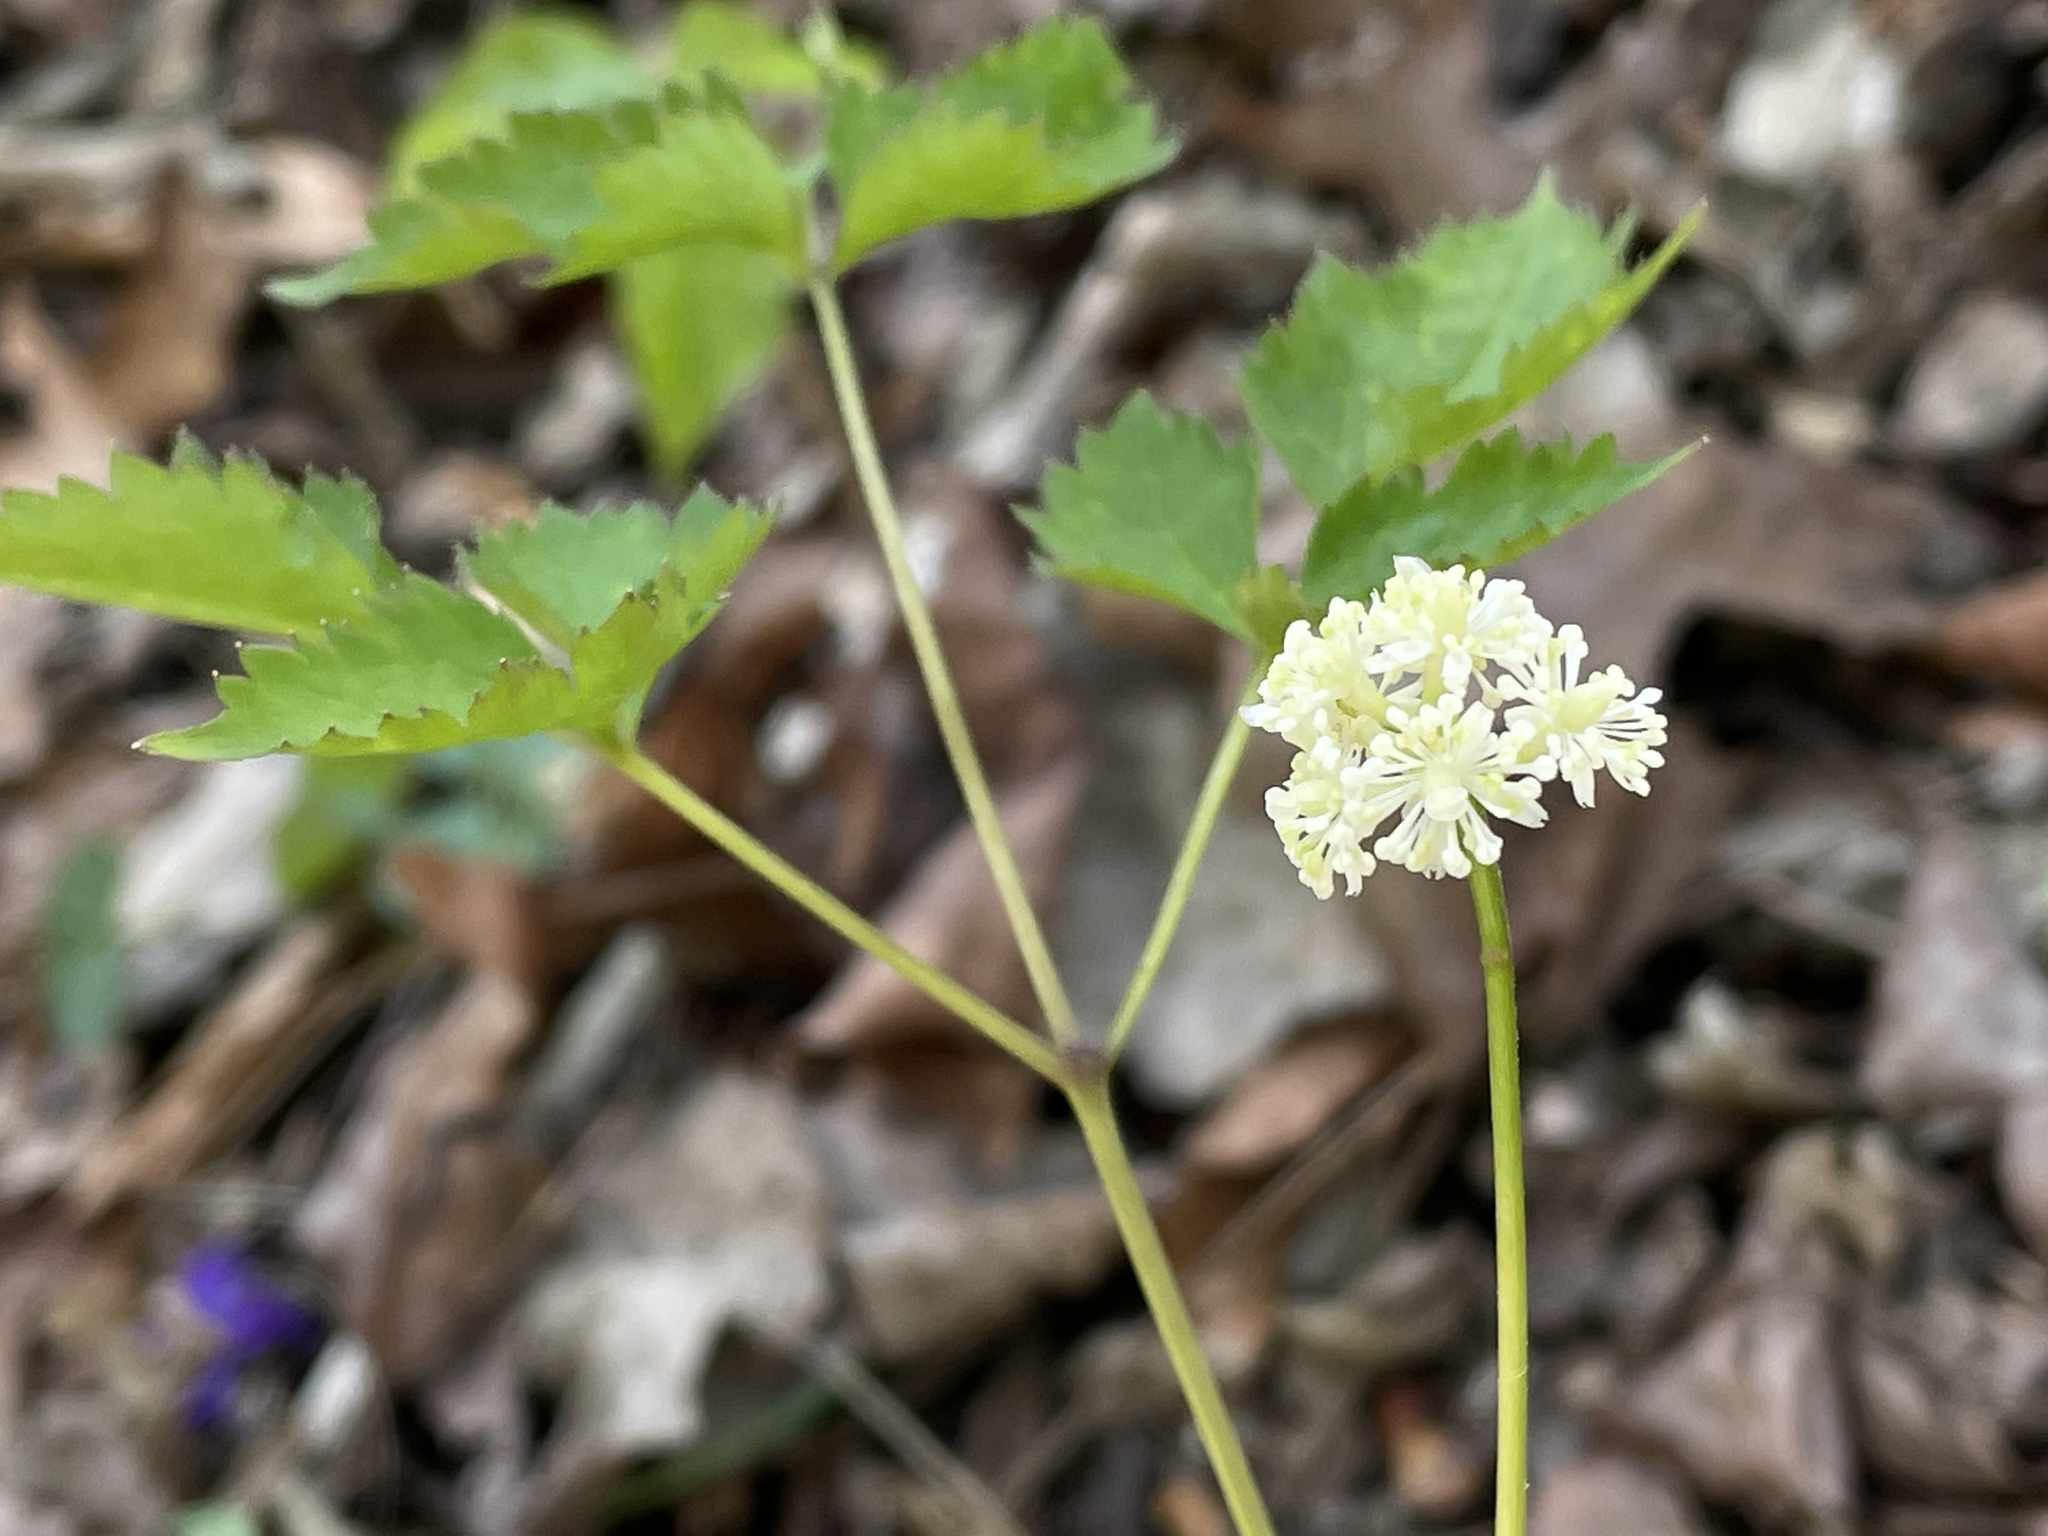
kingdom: Plantae
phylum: Tracheophyta
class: Magnoliopsida
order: Ranunculales
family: Ranunculaceae
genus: Actaea
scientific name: Actaea pachypoda
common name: Doll's-eyes
